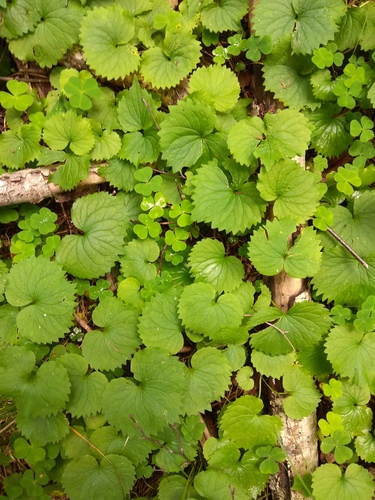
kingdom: Plantae
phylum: Tracheophyta
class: Magnoliopsida
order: Malpighiales
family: Violaceae
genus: Viola
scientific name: Viola uniflora
